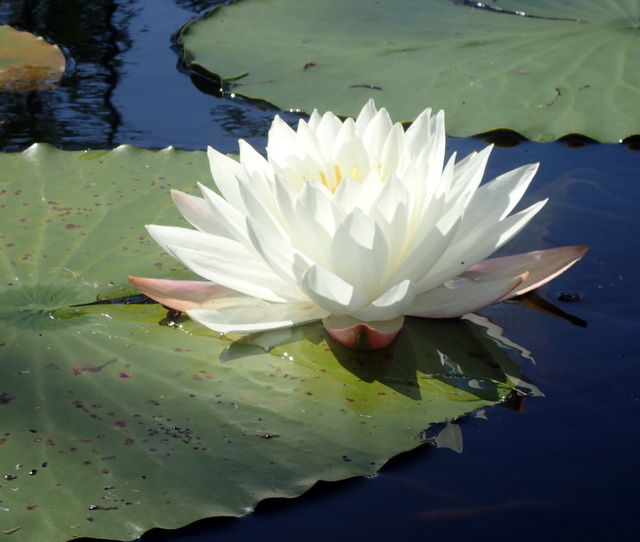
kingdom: Plantae
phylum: Tracheophyta
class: Magnoliopsida
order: Nymphaeales
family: Nymphaeaceae
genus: Nymphaea
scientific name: Nymphaea odorata
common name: Fragrant water-lily
